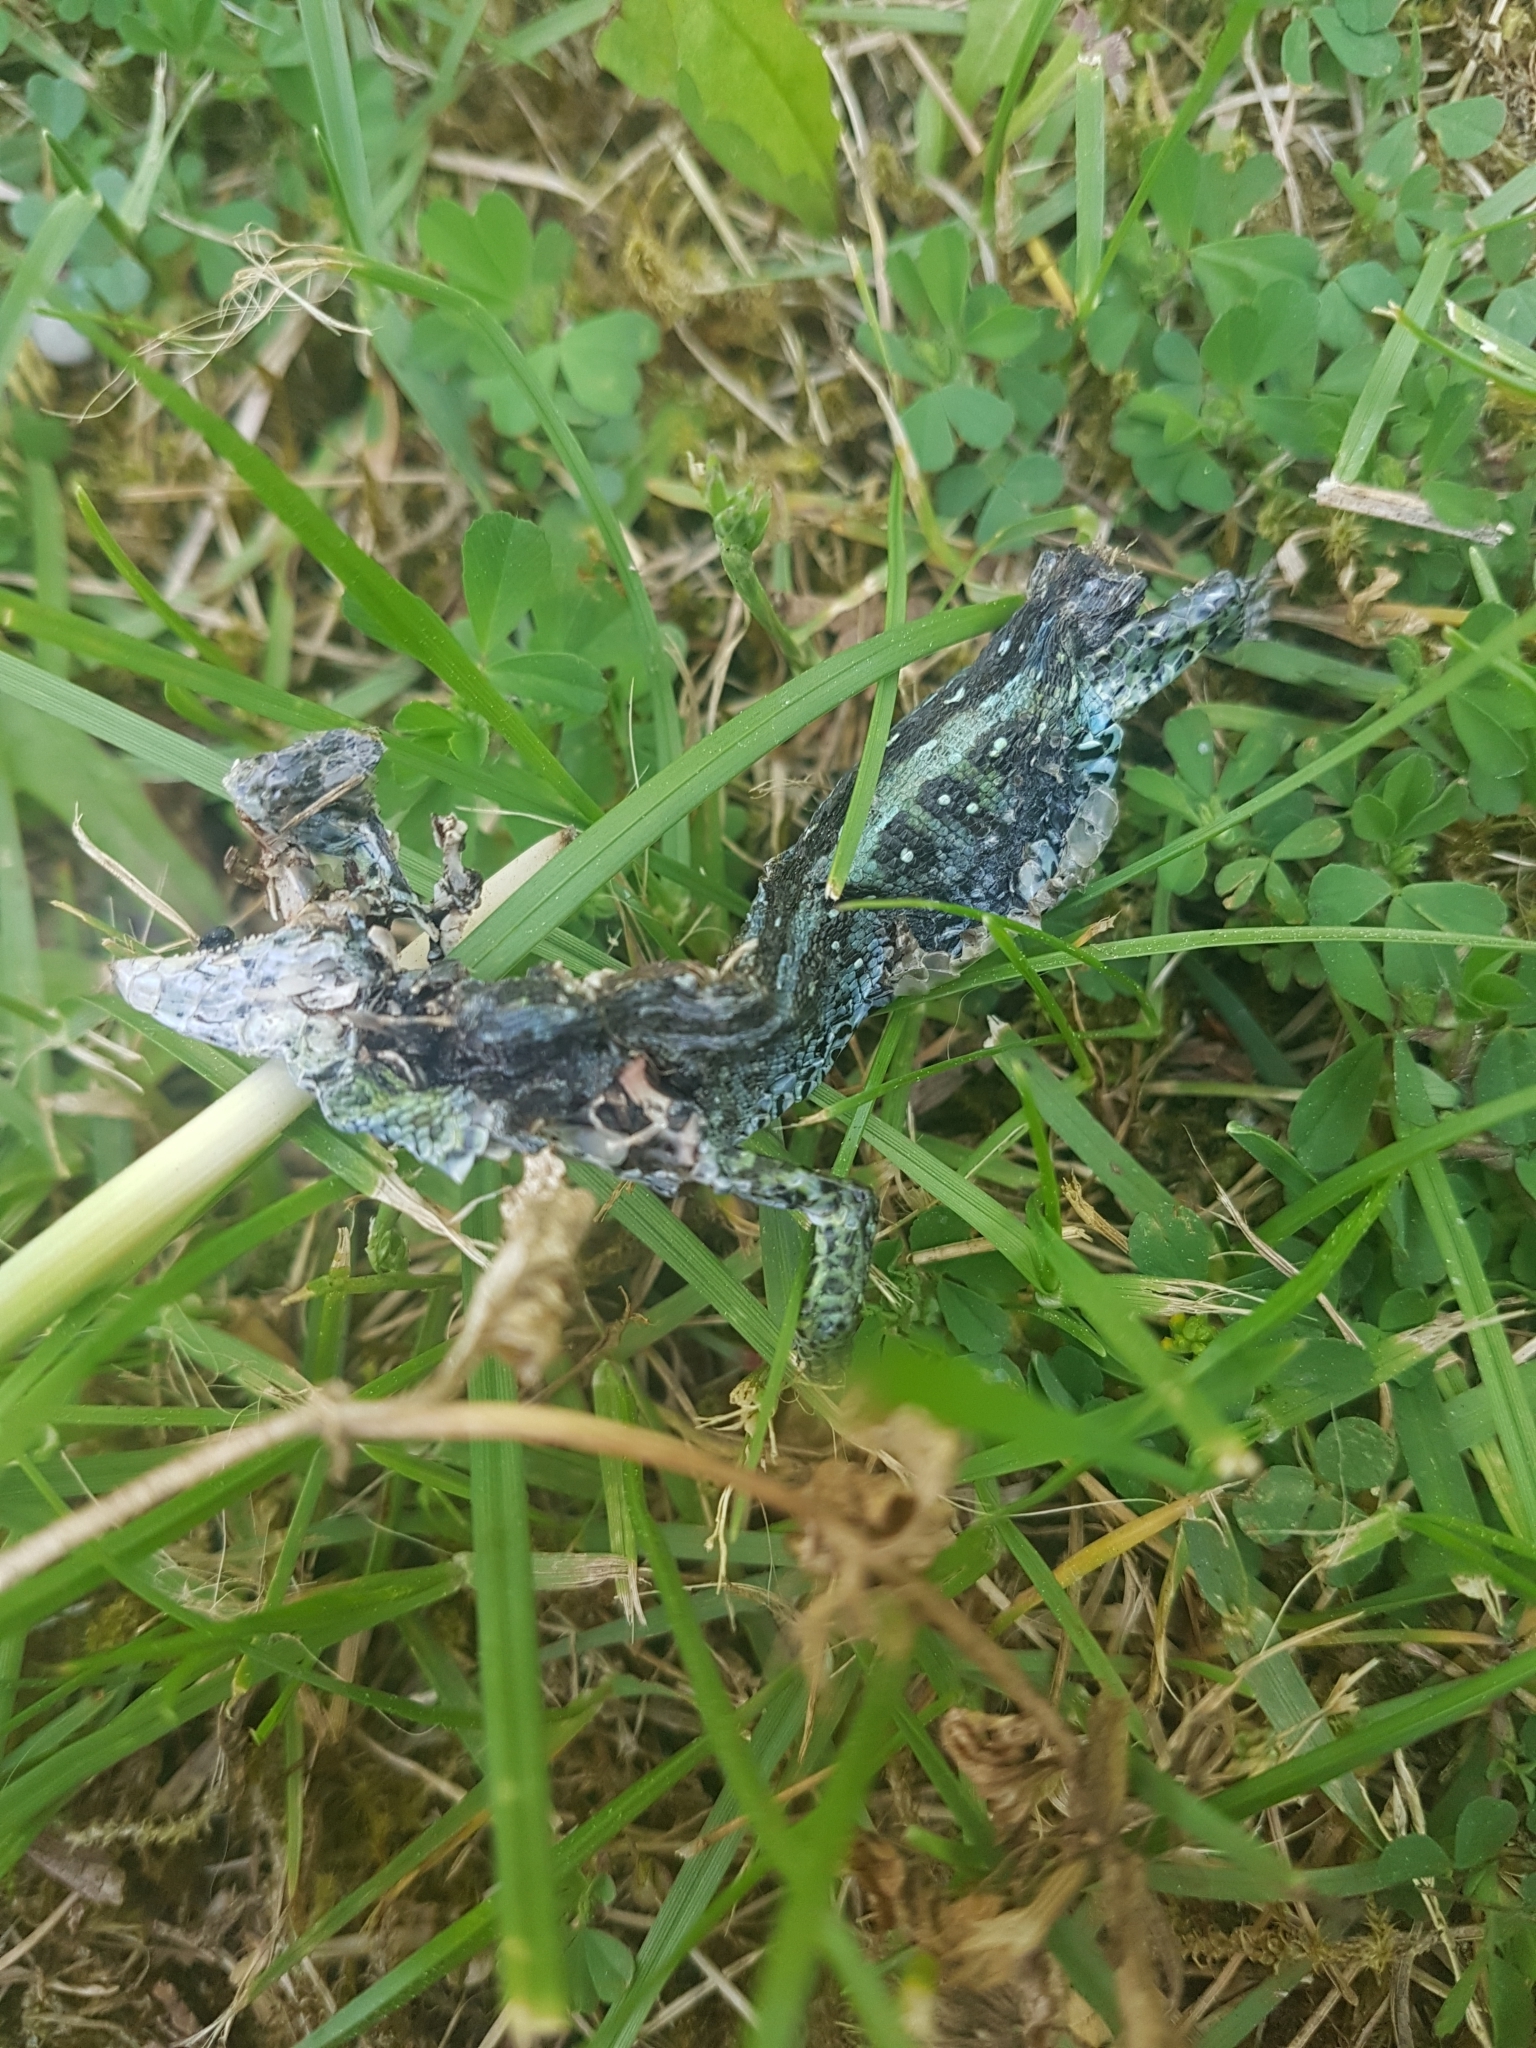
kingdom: Animalia
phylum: Chordata
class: Squamata
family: Lacertidae
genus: Lacerta
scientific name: Lacerta agilis
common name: Sand lizard
